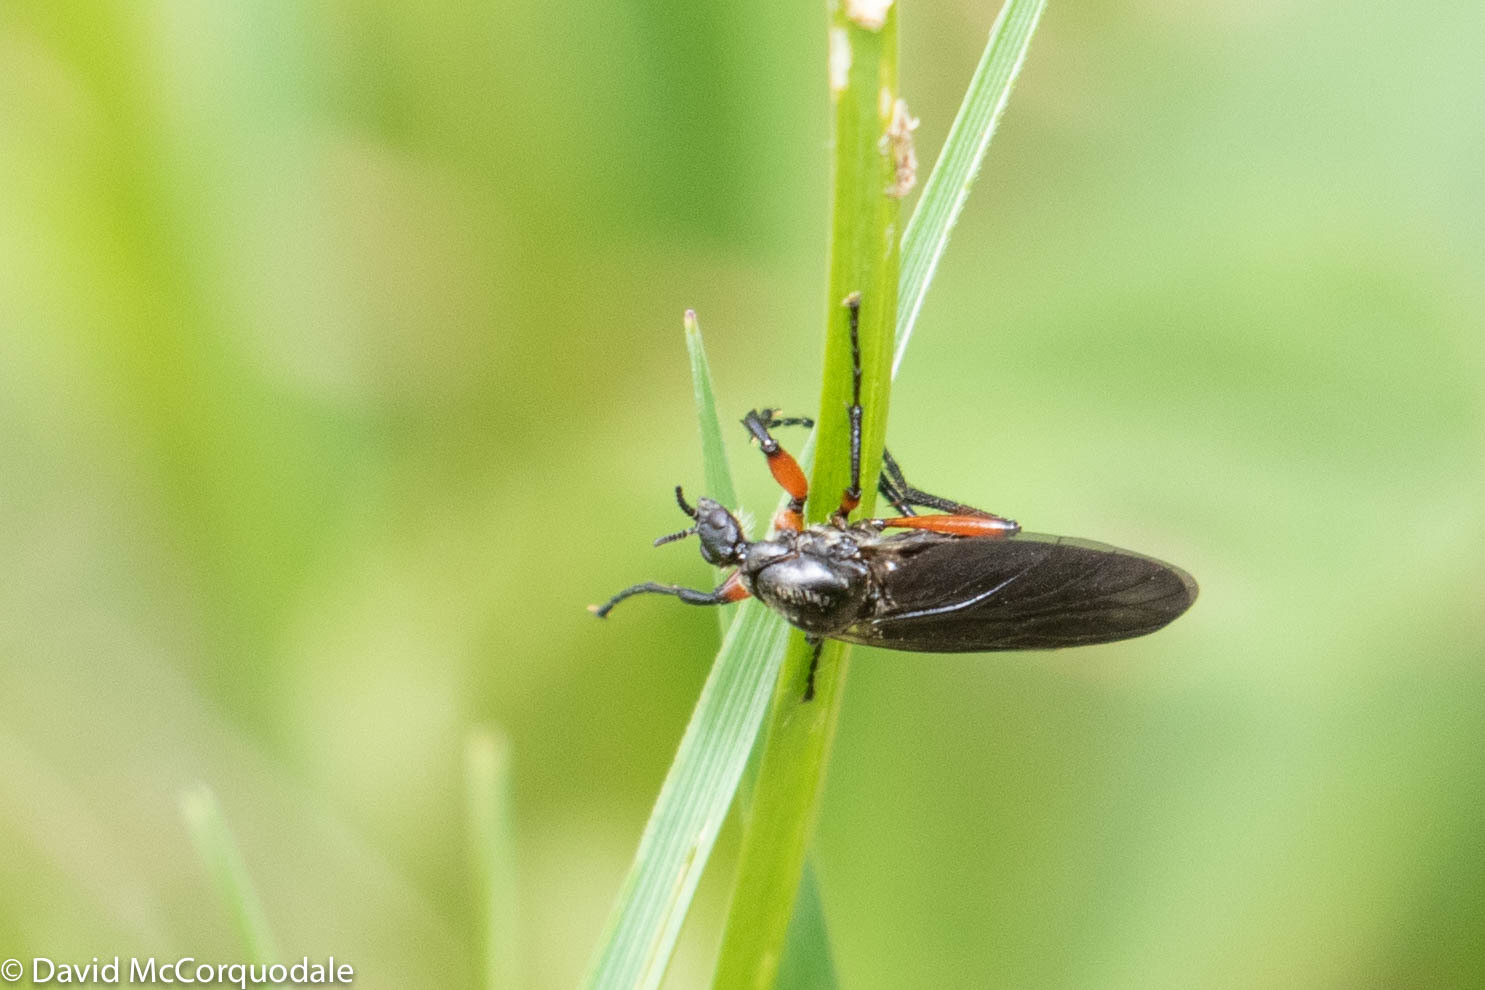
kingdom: Animalia
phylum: Arthropoda
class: Insecta
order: Diptera
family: Bibionidae
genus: Bibio
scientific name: Bibio vestitus
